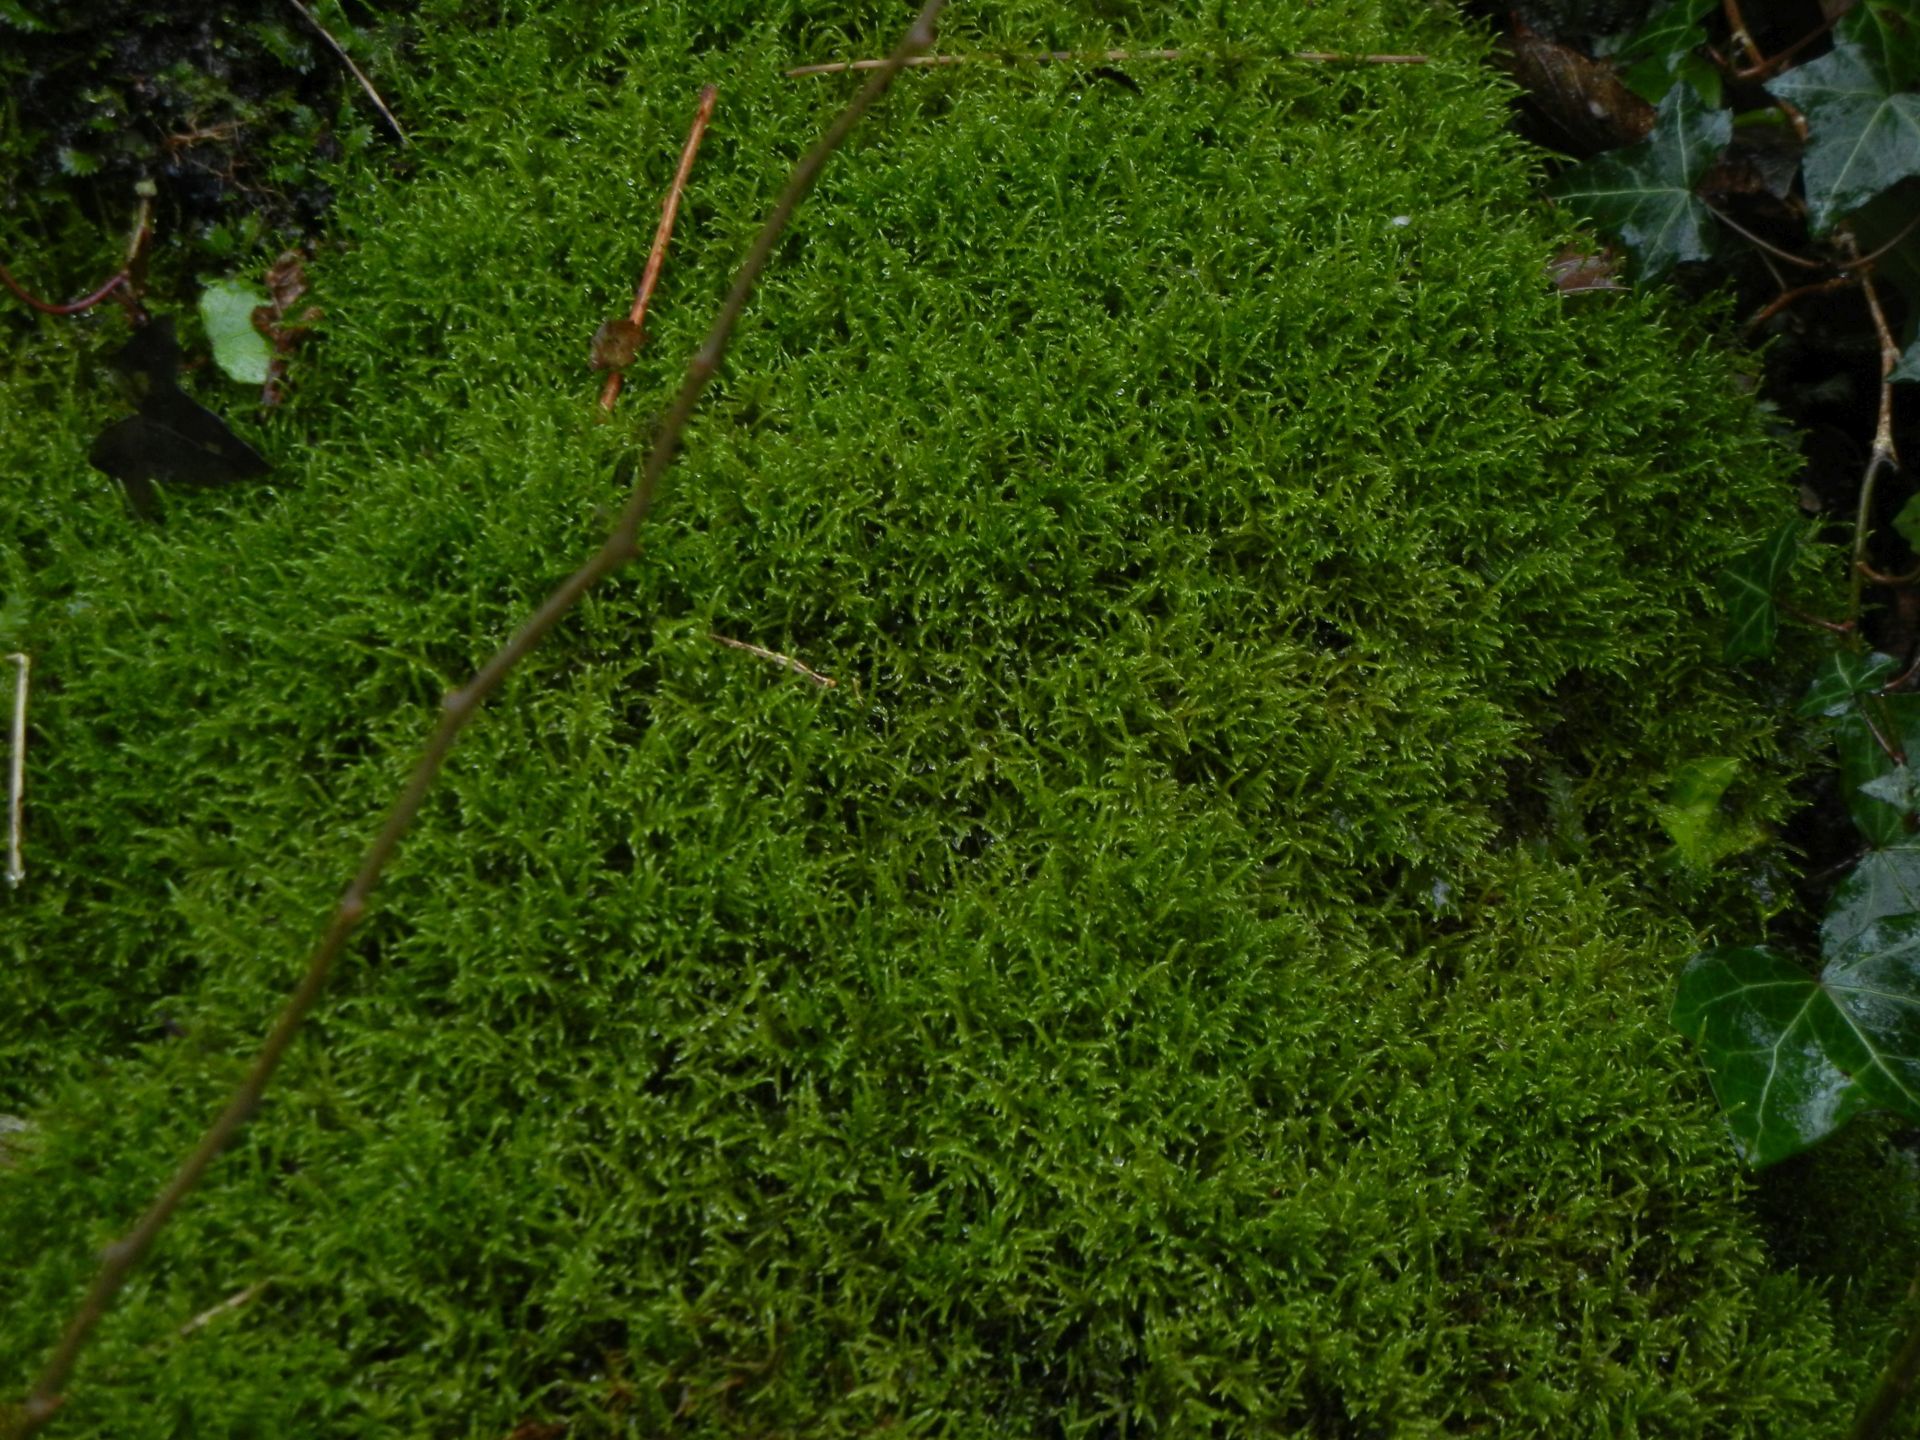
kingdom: Plantae
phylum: Bryophyta
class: Bryopsida
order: Hypnales
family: Amblystegiaceae
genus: Cratoneuron
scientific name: Cratoneuron filicinum
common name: Fern-leaved hook moss
